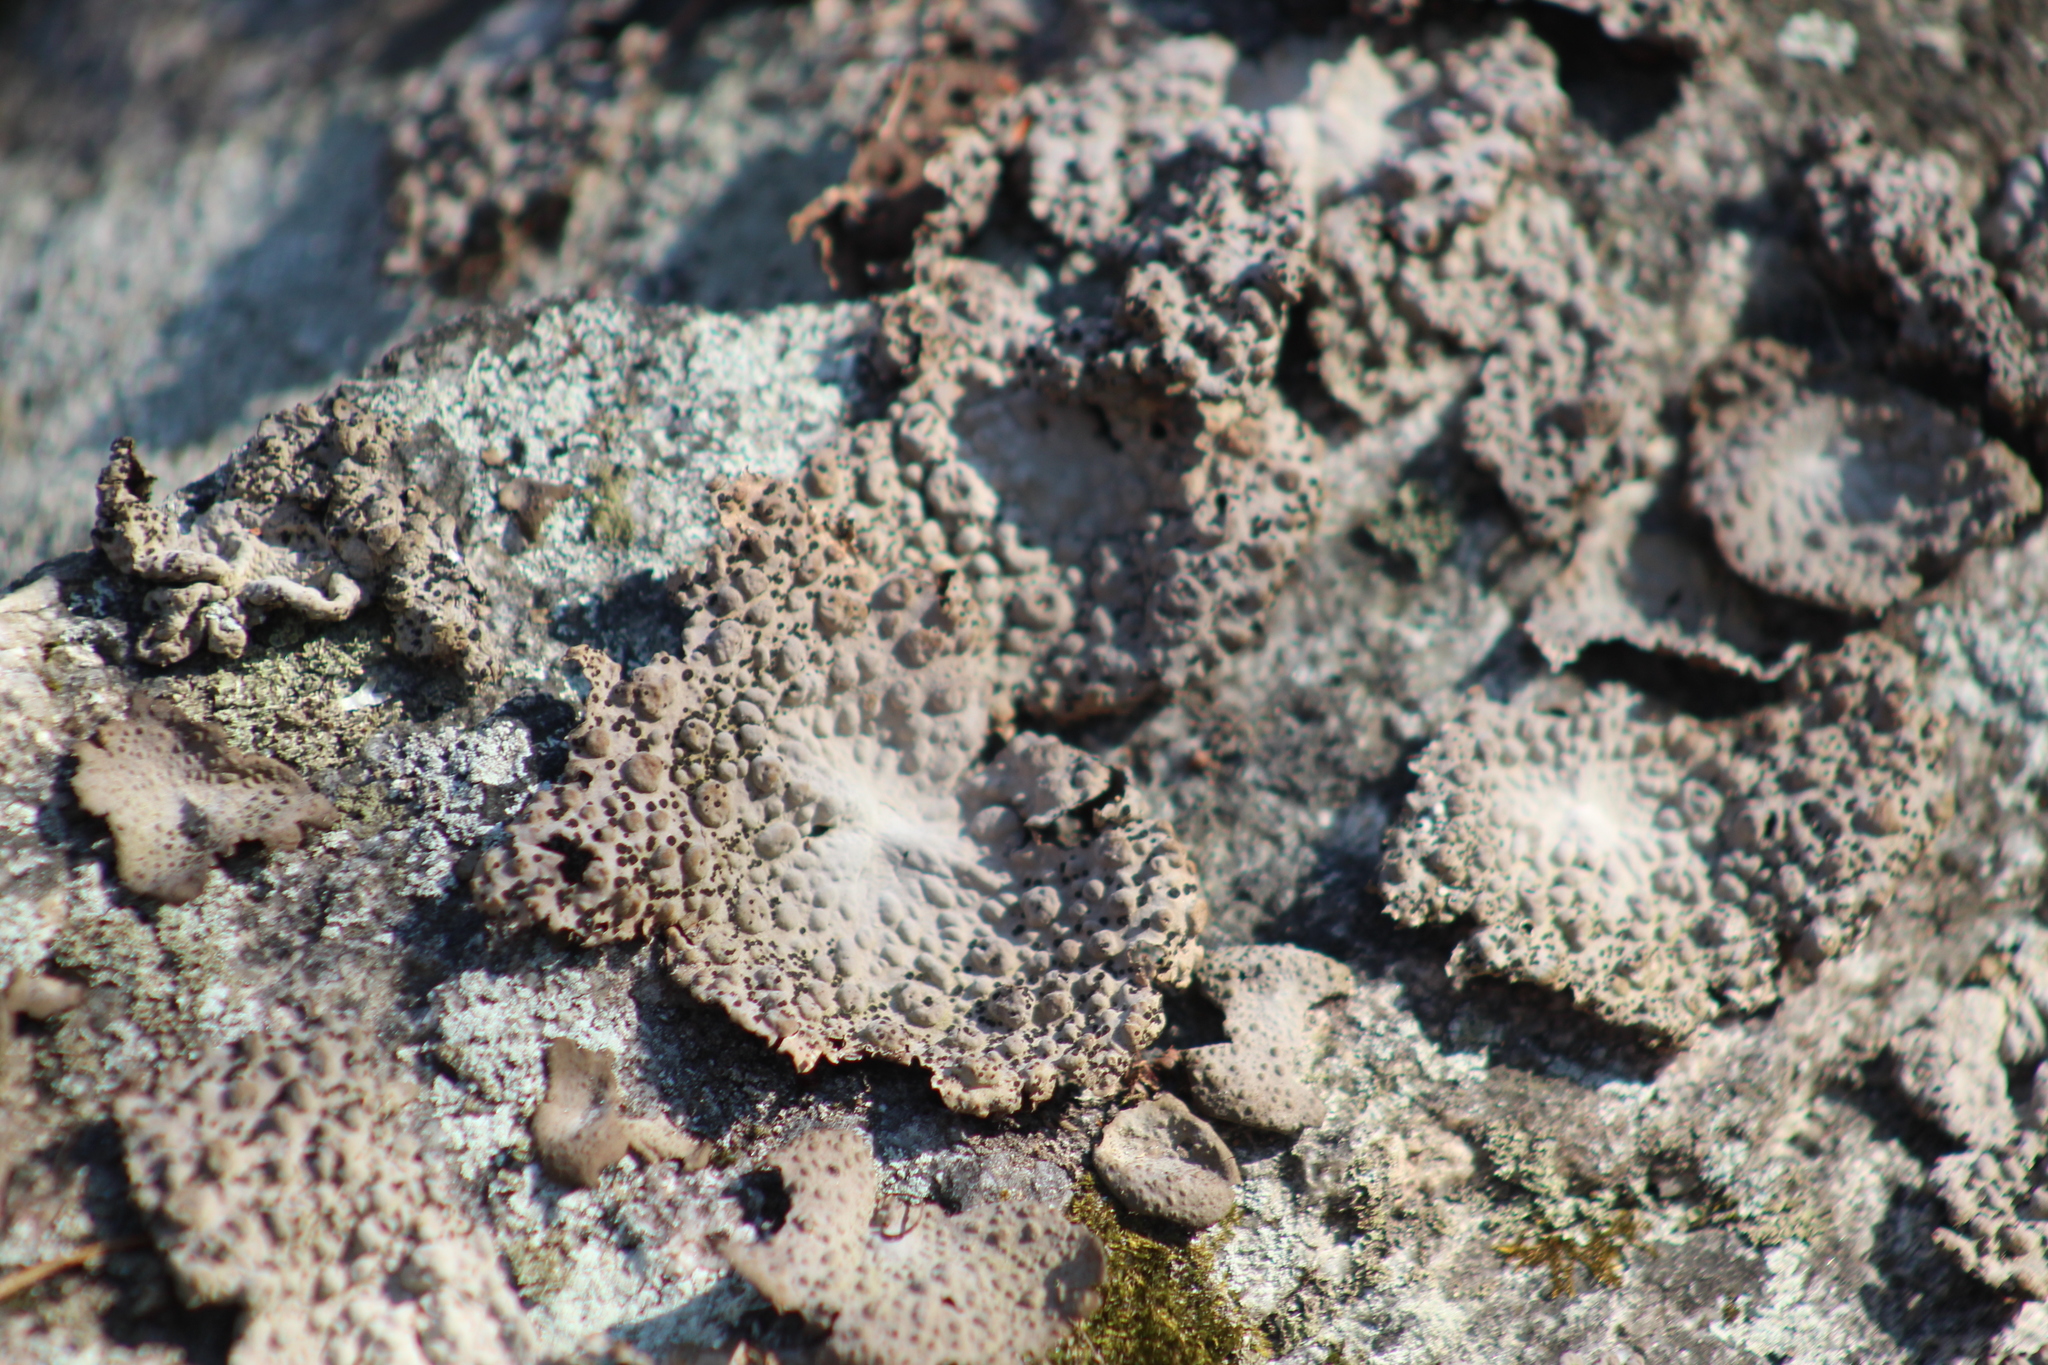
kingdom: Fungi
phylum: Ascomycota
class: Lecanoromycetes
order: Umbilicariales
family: Umbilicariaceae
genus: Lasallia
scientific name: Lasallia papulosa
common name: Common toadskin lichen
